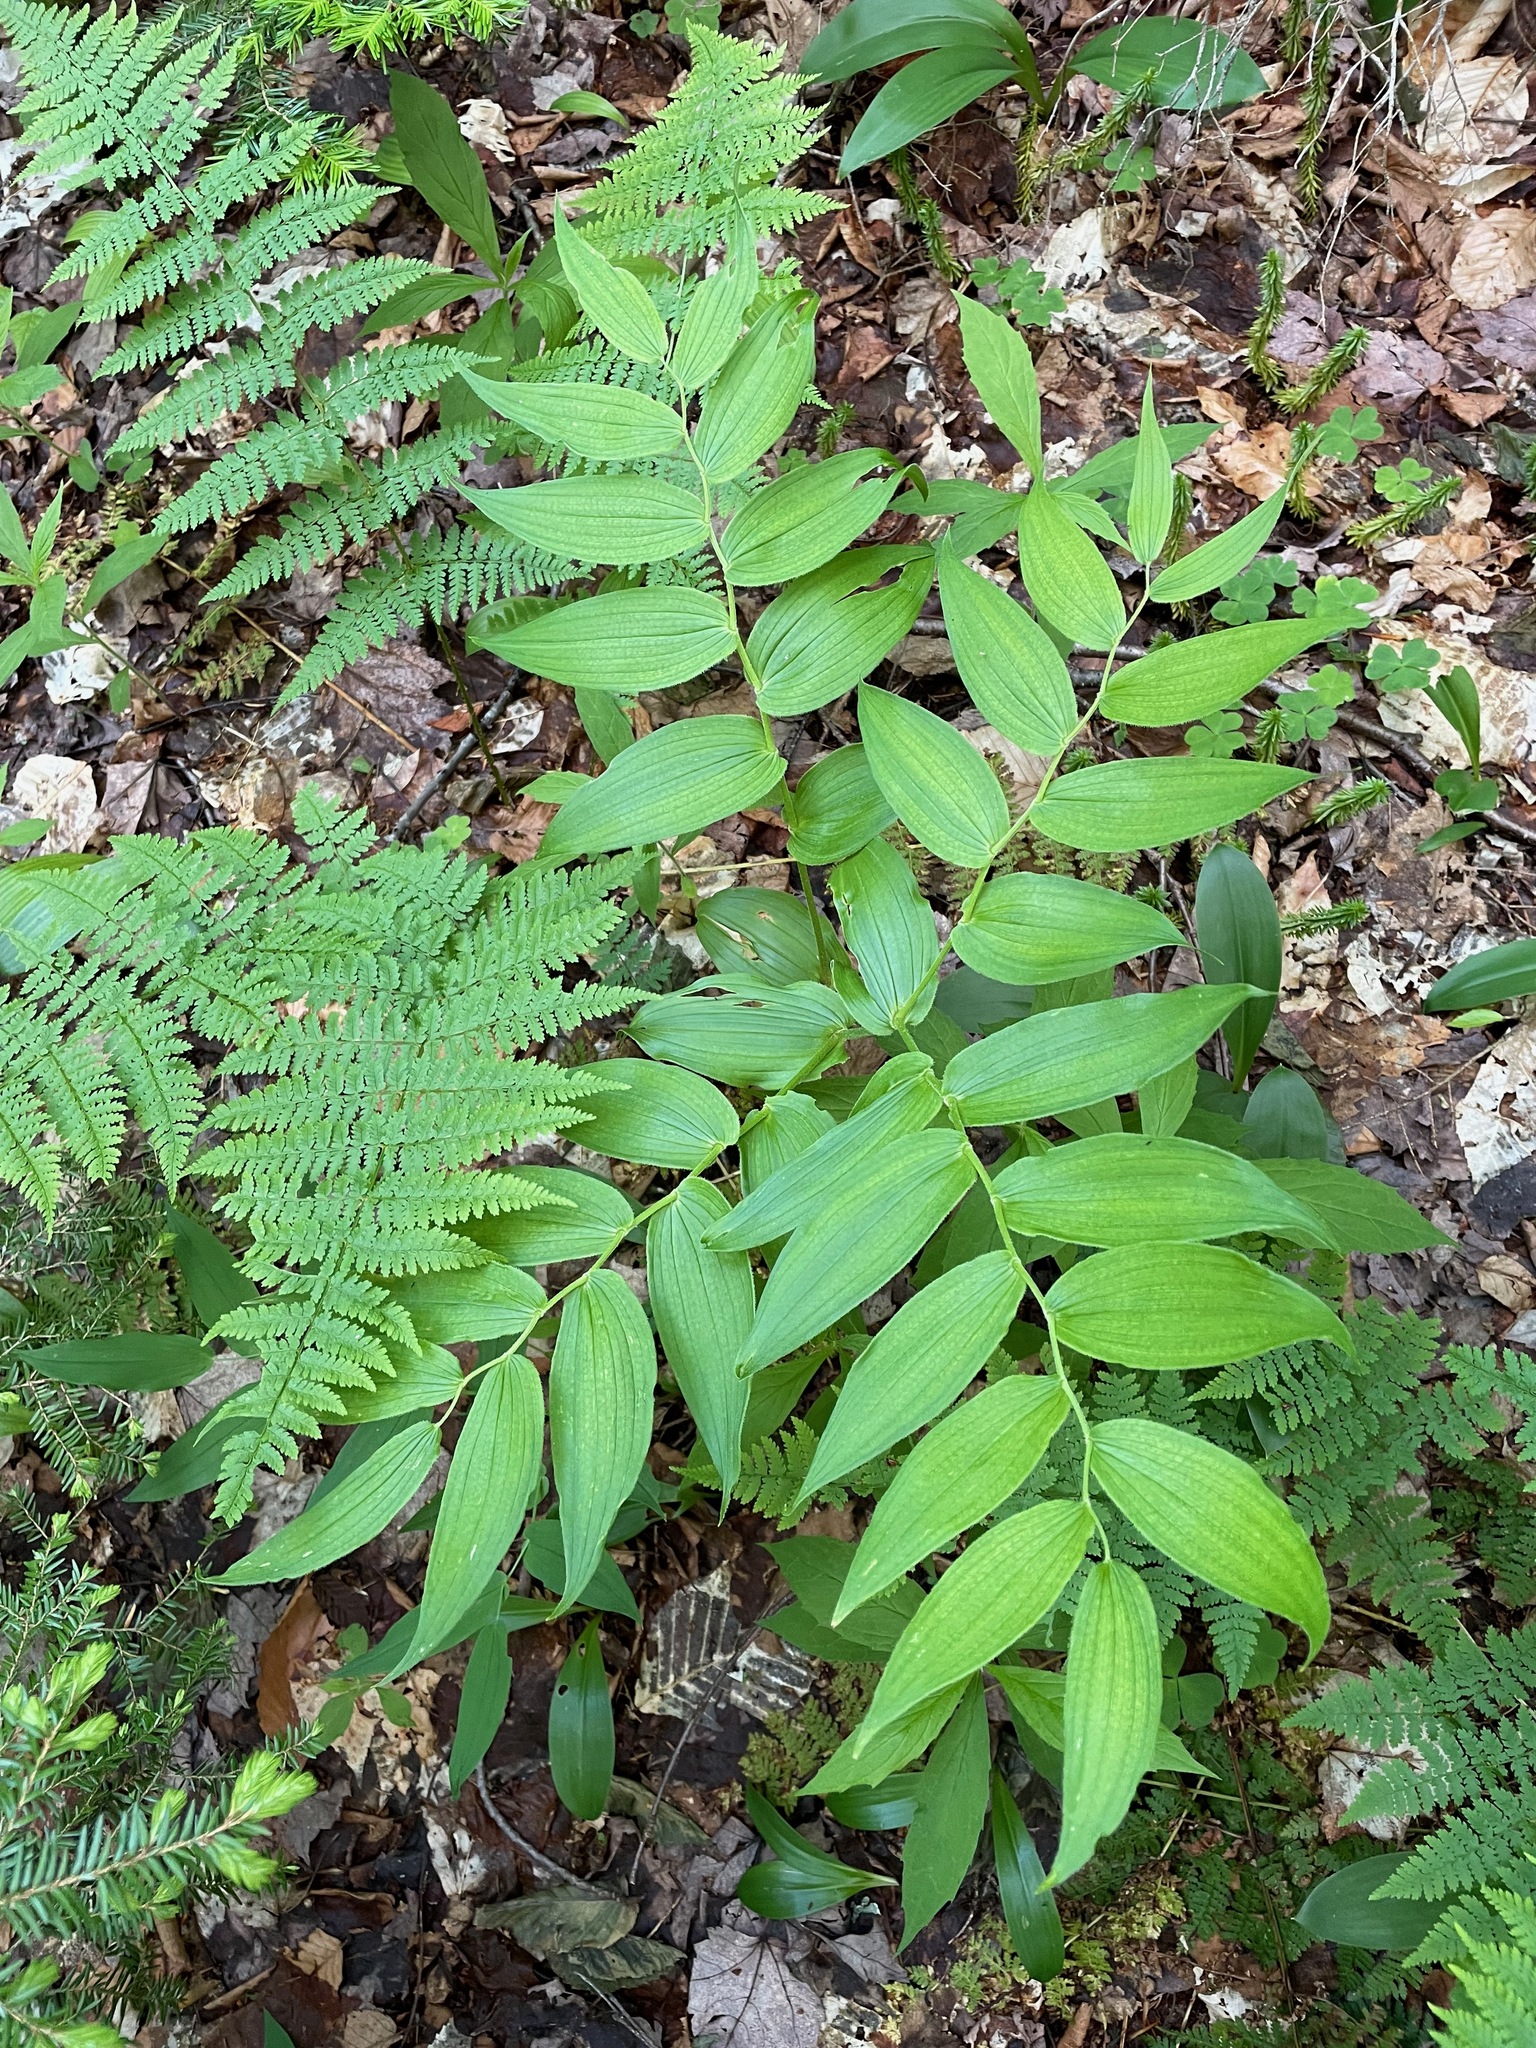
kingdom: Plantae
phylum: Tracheophyta
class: Liliopsida
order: Liliales
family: Liliaceae
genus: Streptopus
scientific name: Streptopus lanceolatus
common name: Rose mandarin
